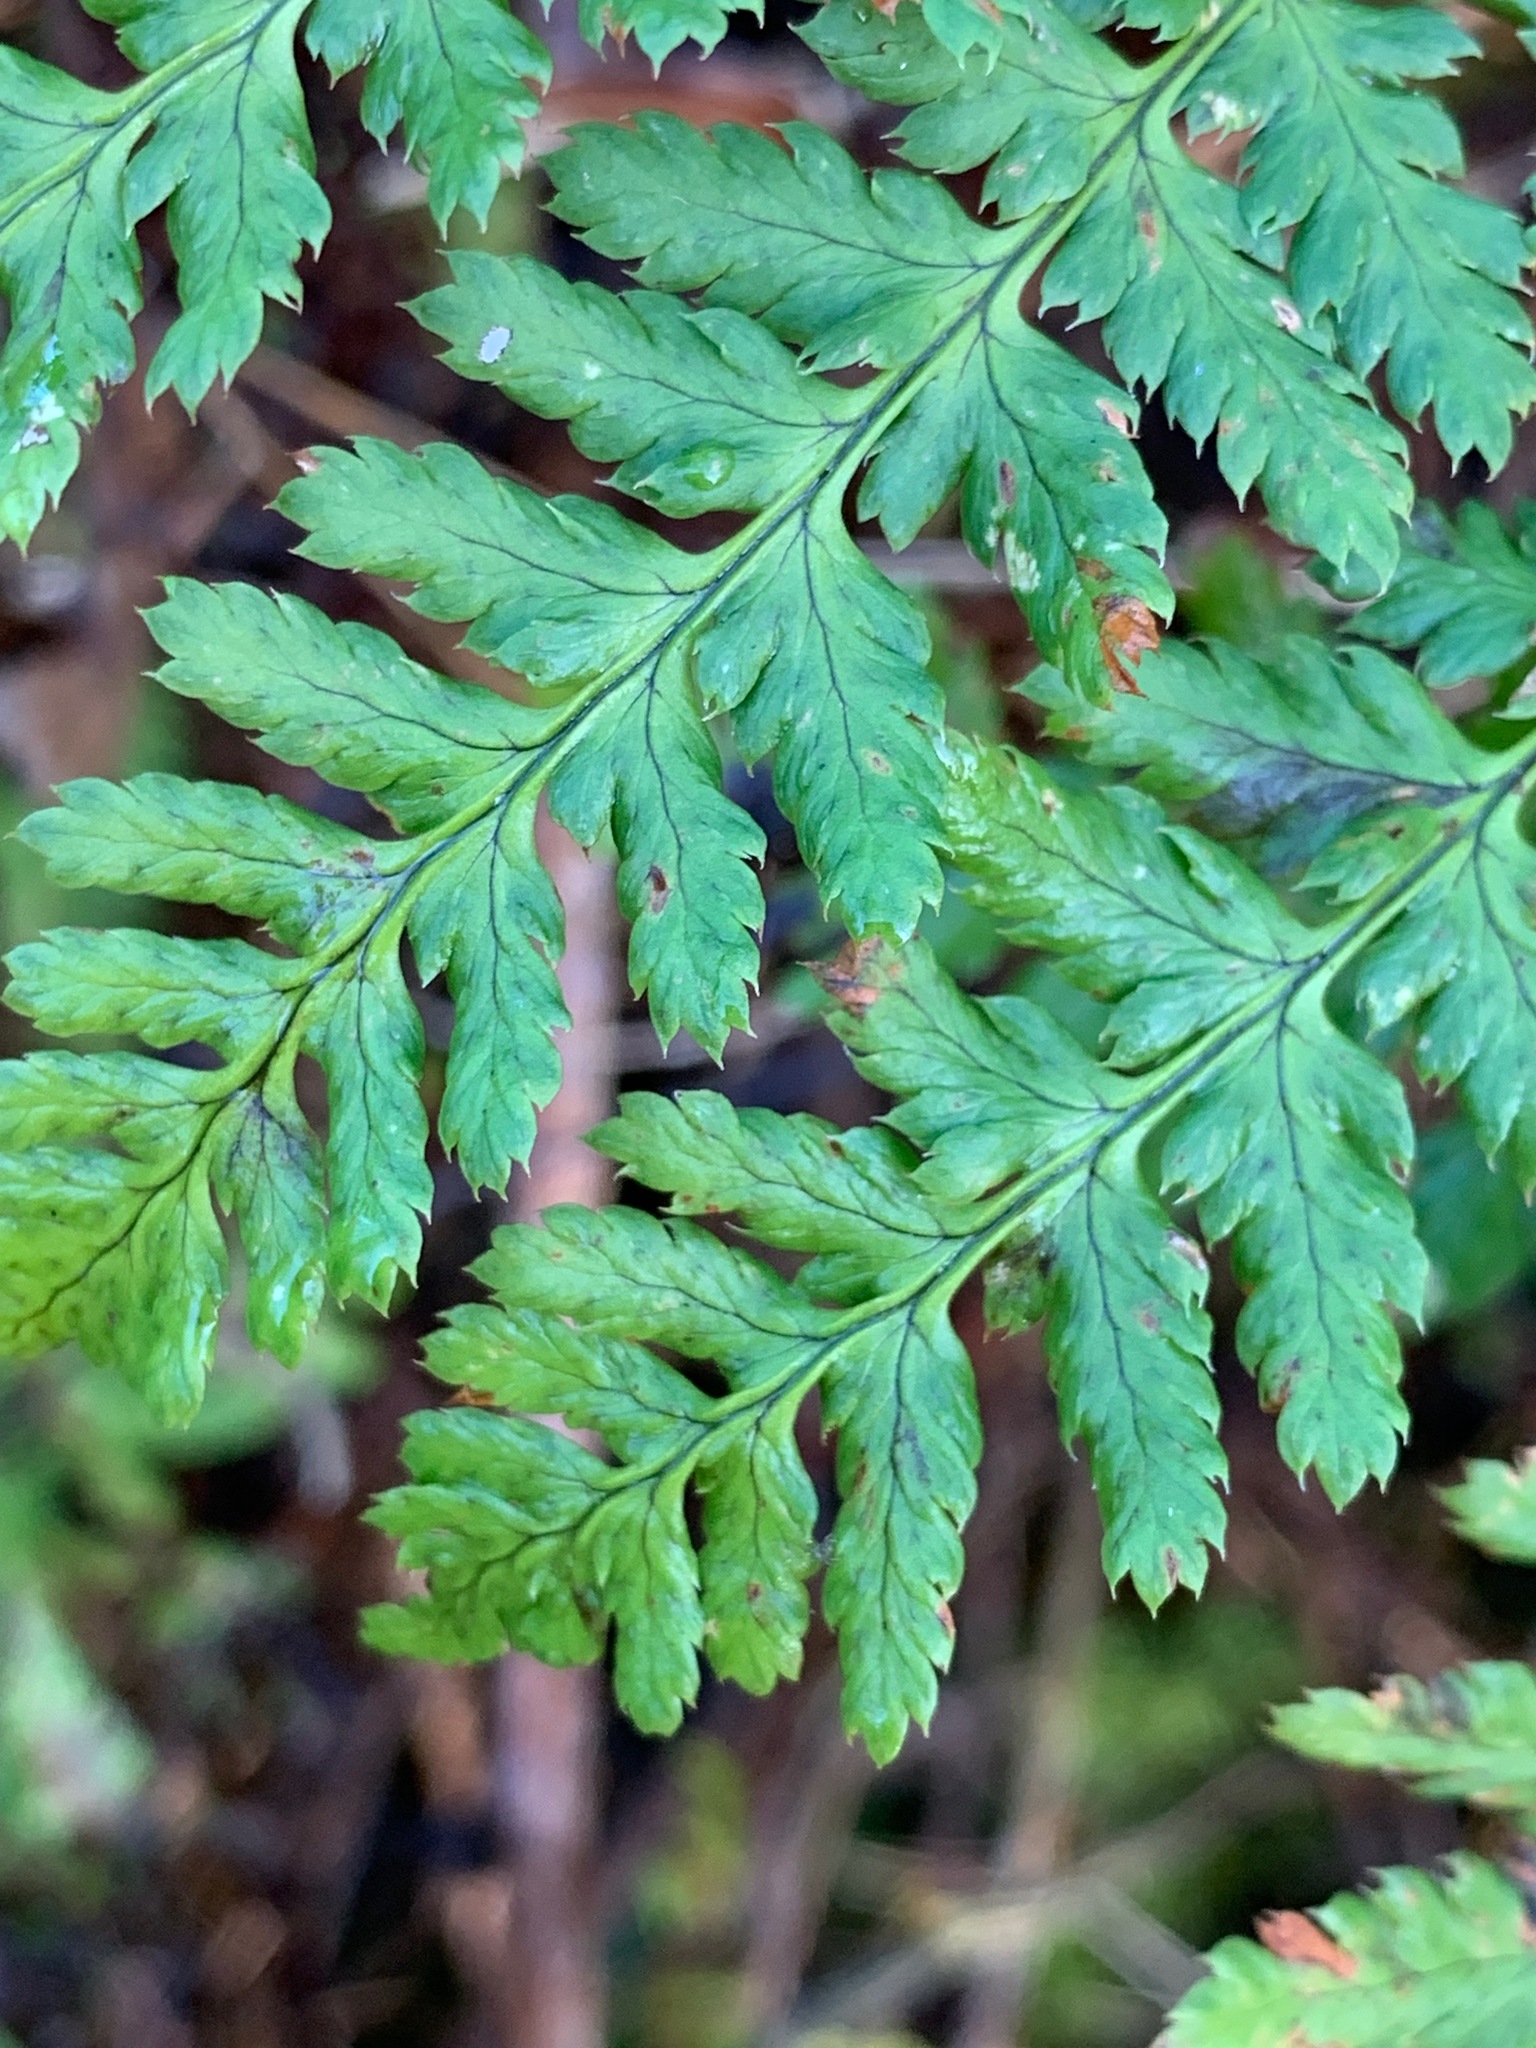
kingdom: Plantae
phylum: Tracheophyta
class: Polypodiopsida
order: Polypodiales
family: Dryopteridaceae
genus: Dryopteris
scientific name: Dryopteris dilatata
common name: Broad buckler-fern
